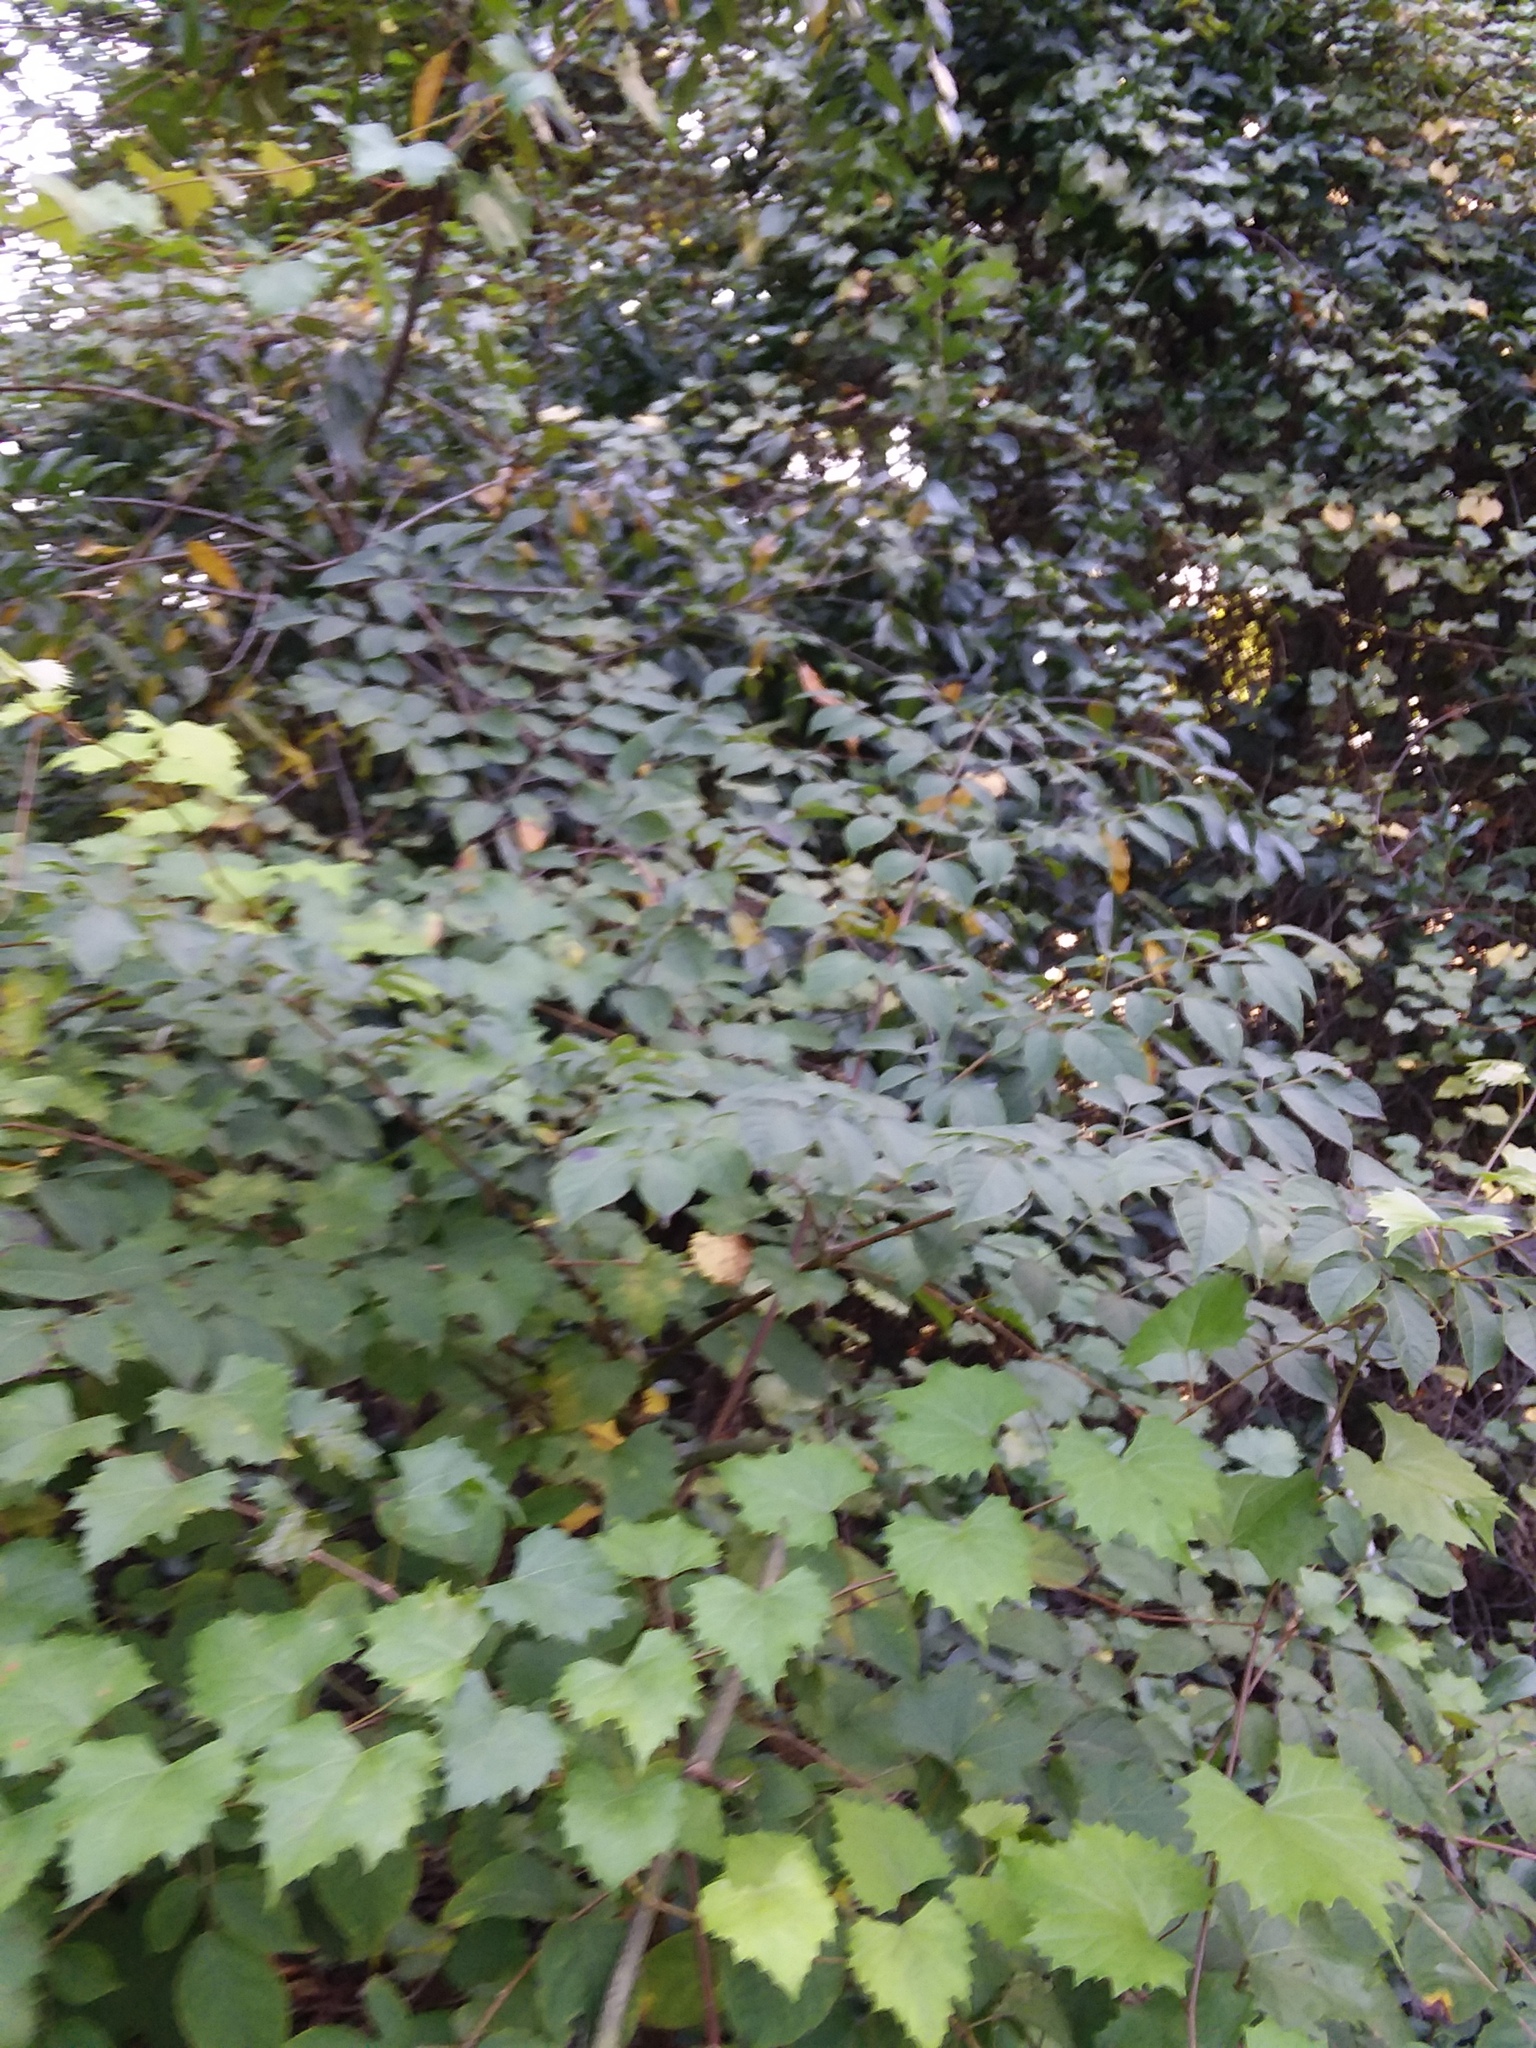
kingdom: Plantae
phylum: Tracheophyta
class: Magnoliopsida
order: Apiales
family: Araliaceae
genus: Aralia
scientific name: Aralia spinosa
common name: Hercules'-club
